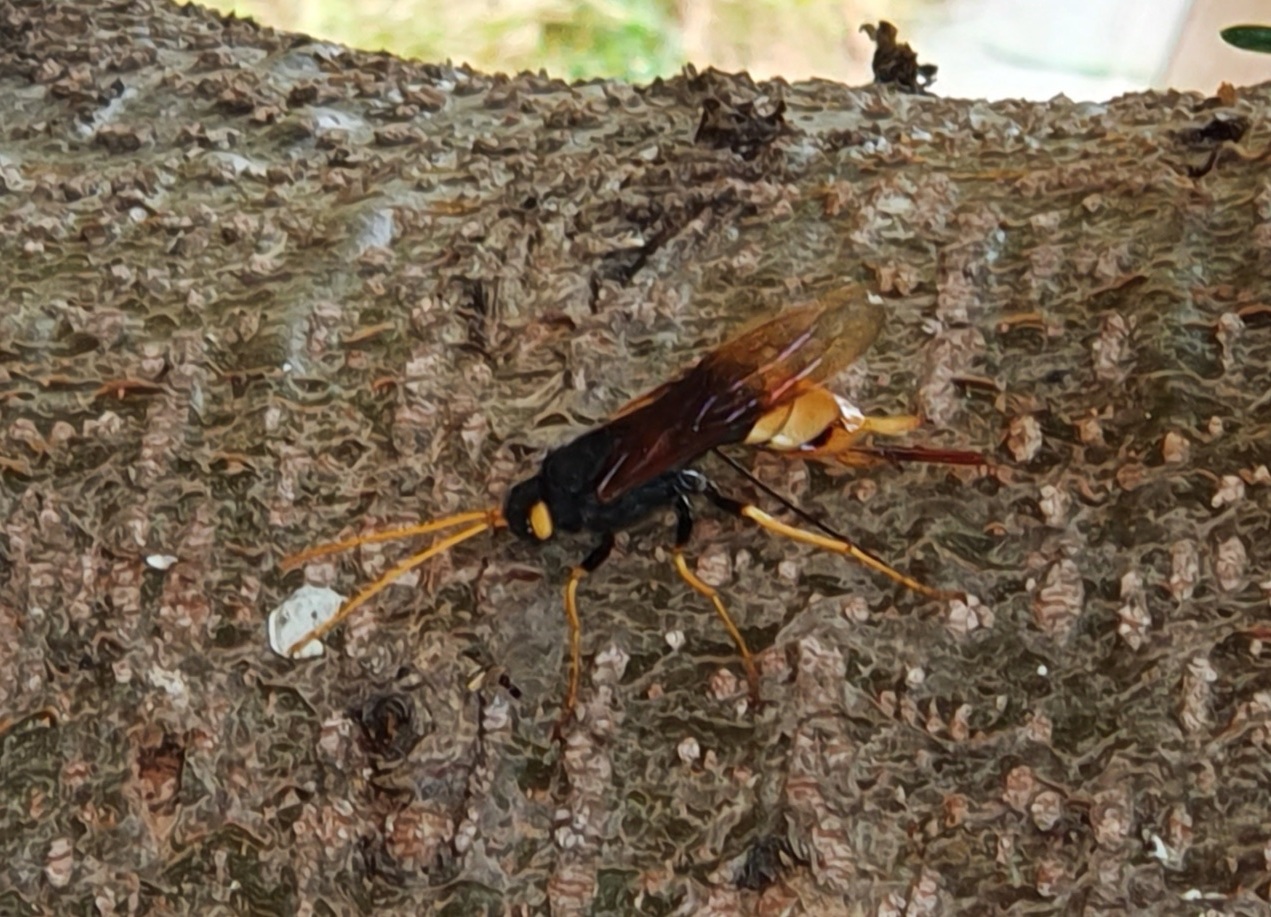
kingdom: Animalia
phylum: Arthropoda
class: Insecta
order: Hymenoptera
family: Siricidae
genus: Urocerus
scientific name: Urocerus gigas
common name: Giant woodwasp
